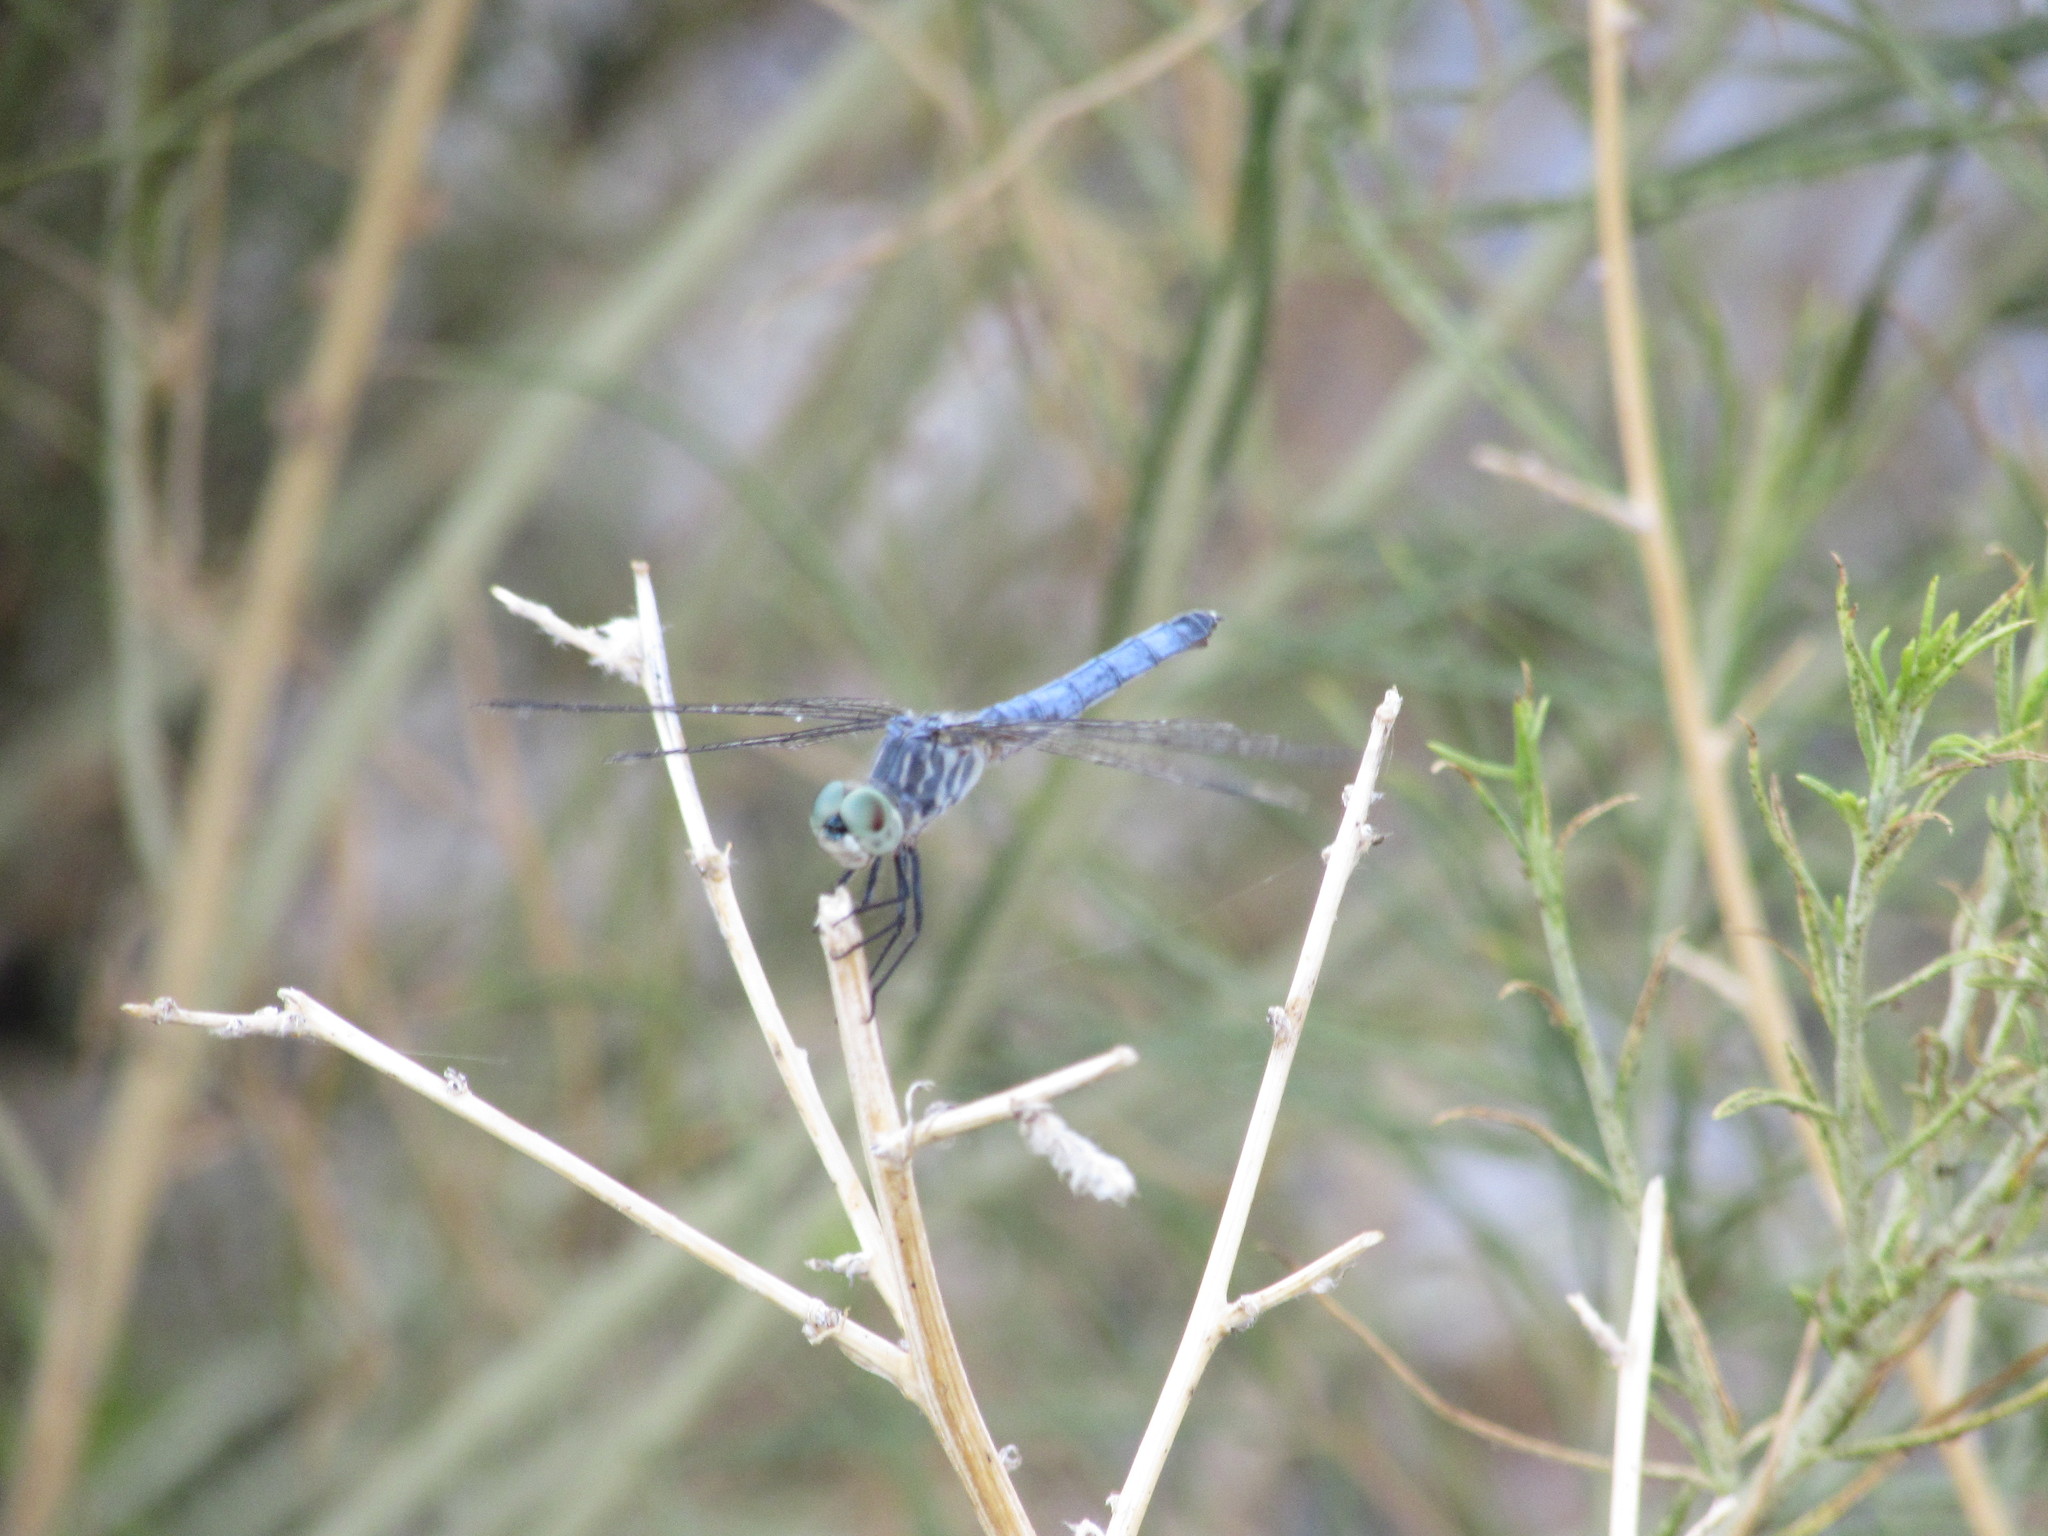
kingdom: Animalia
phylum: Arthropoda
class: Insecta
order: Odonata
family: Libellulidae
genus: Pachydiplax
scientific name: Pachydiplax longipennis
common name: Blue dasher
